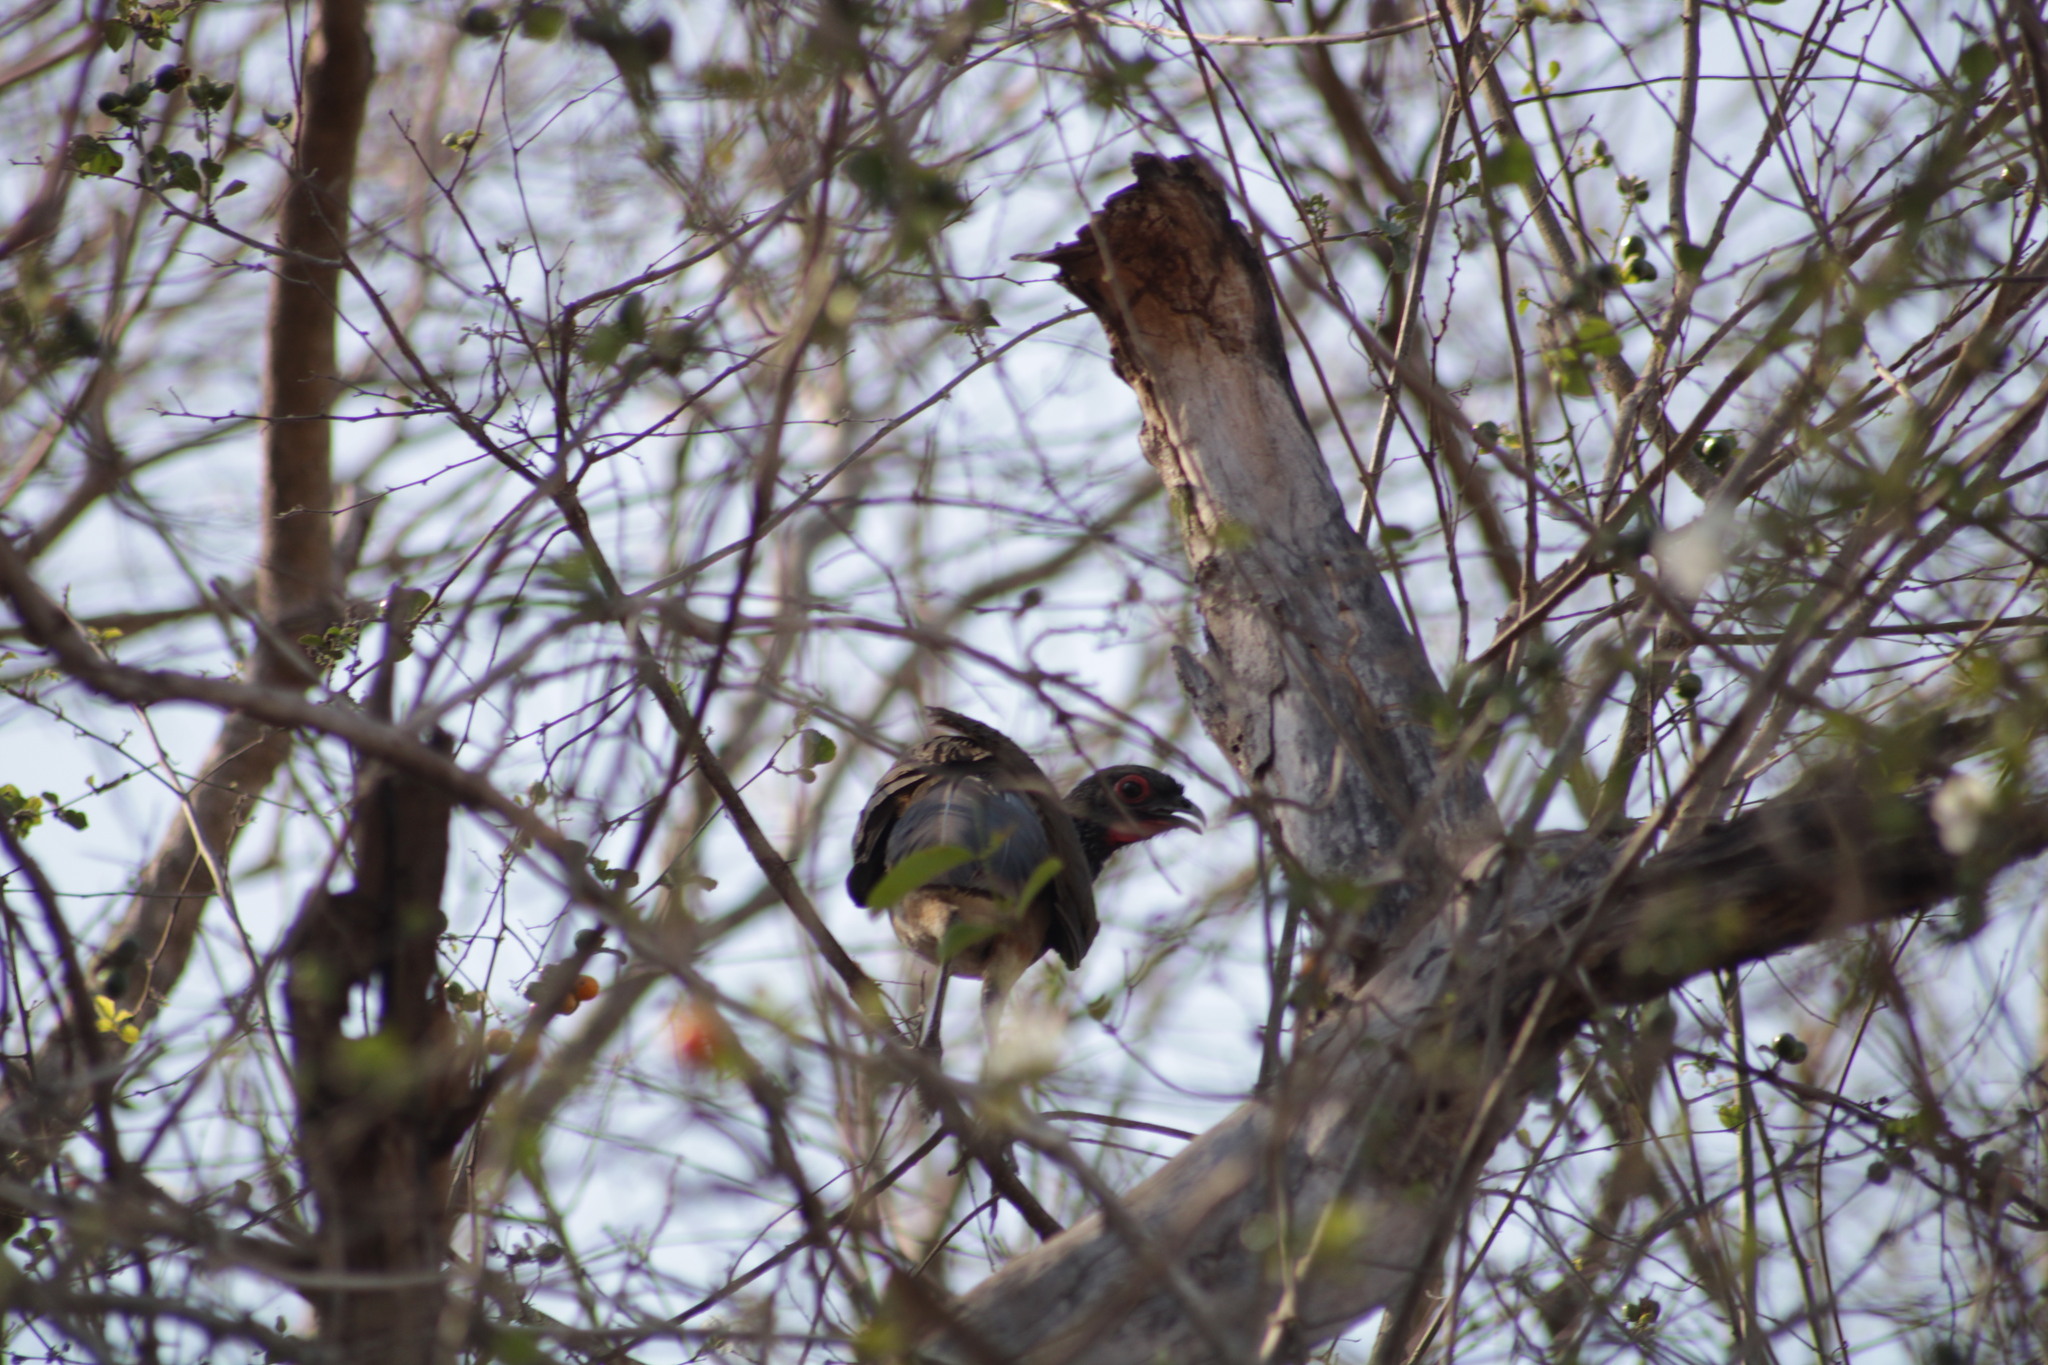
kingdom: Animalia
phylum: Chordata
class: Aves
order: Galliformes
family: Cracidae
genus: Ortalis
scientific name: Ortalis poliocephala
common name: West mexican chachalaca
